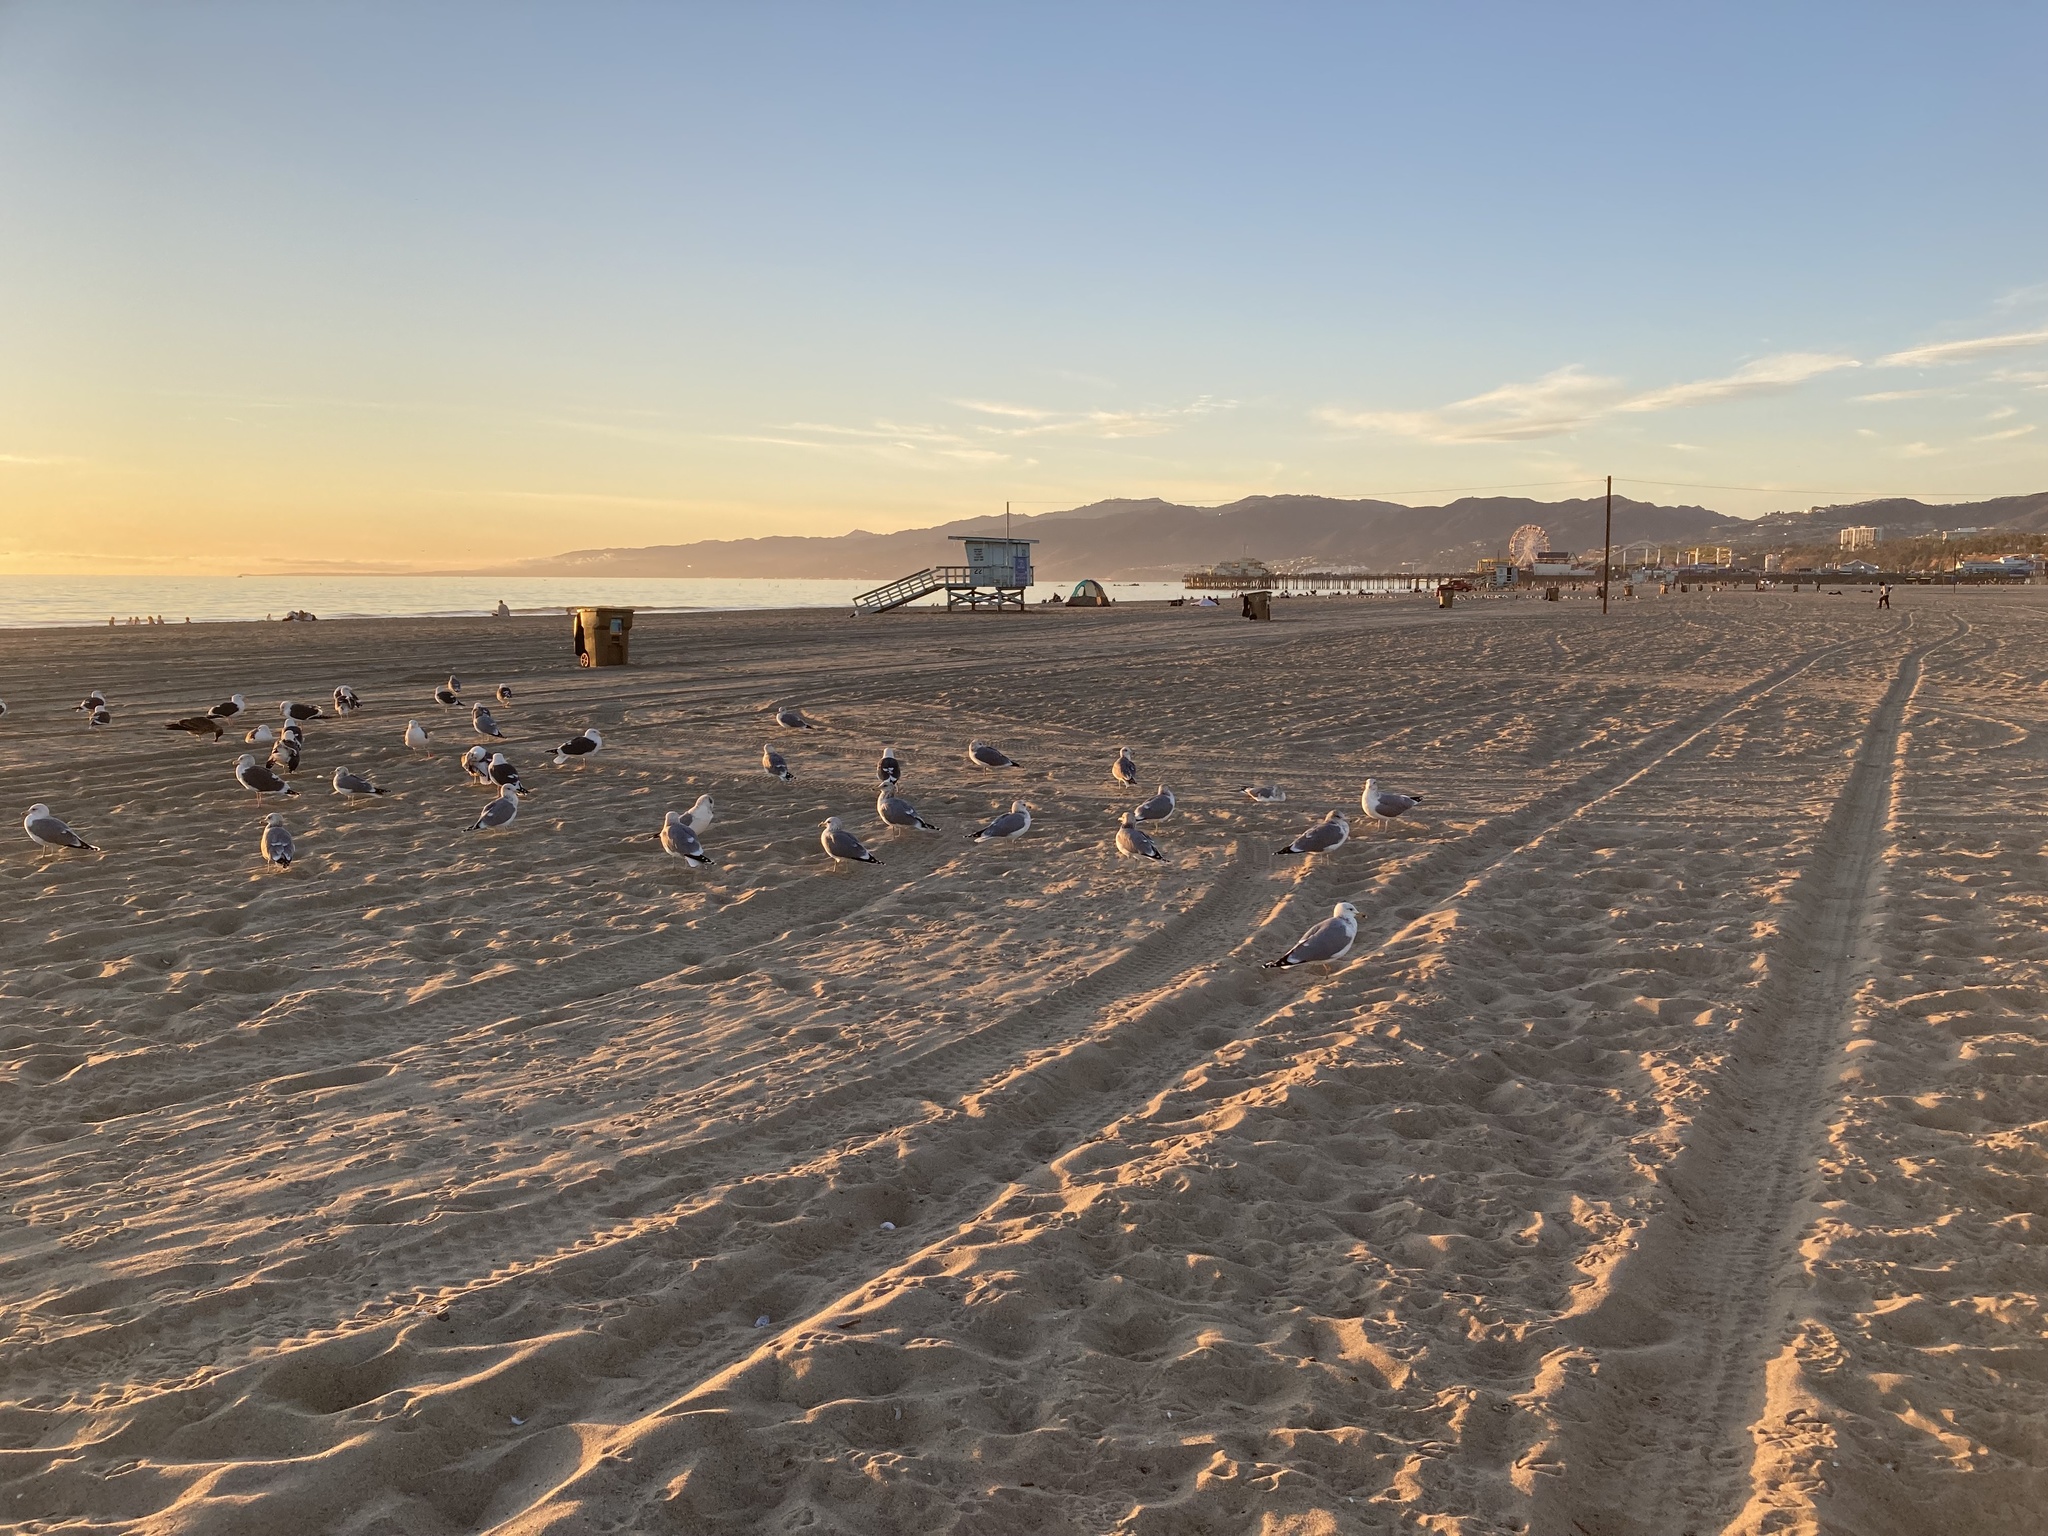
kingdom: Animalia
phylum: Chordata
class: Aves
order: Charadriiformes
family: Laridae
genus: Larus
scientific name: Larus occidentalis
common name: Western gull
